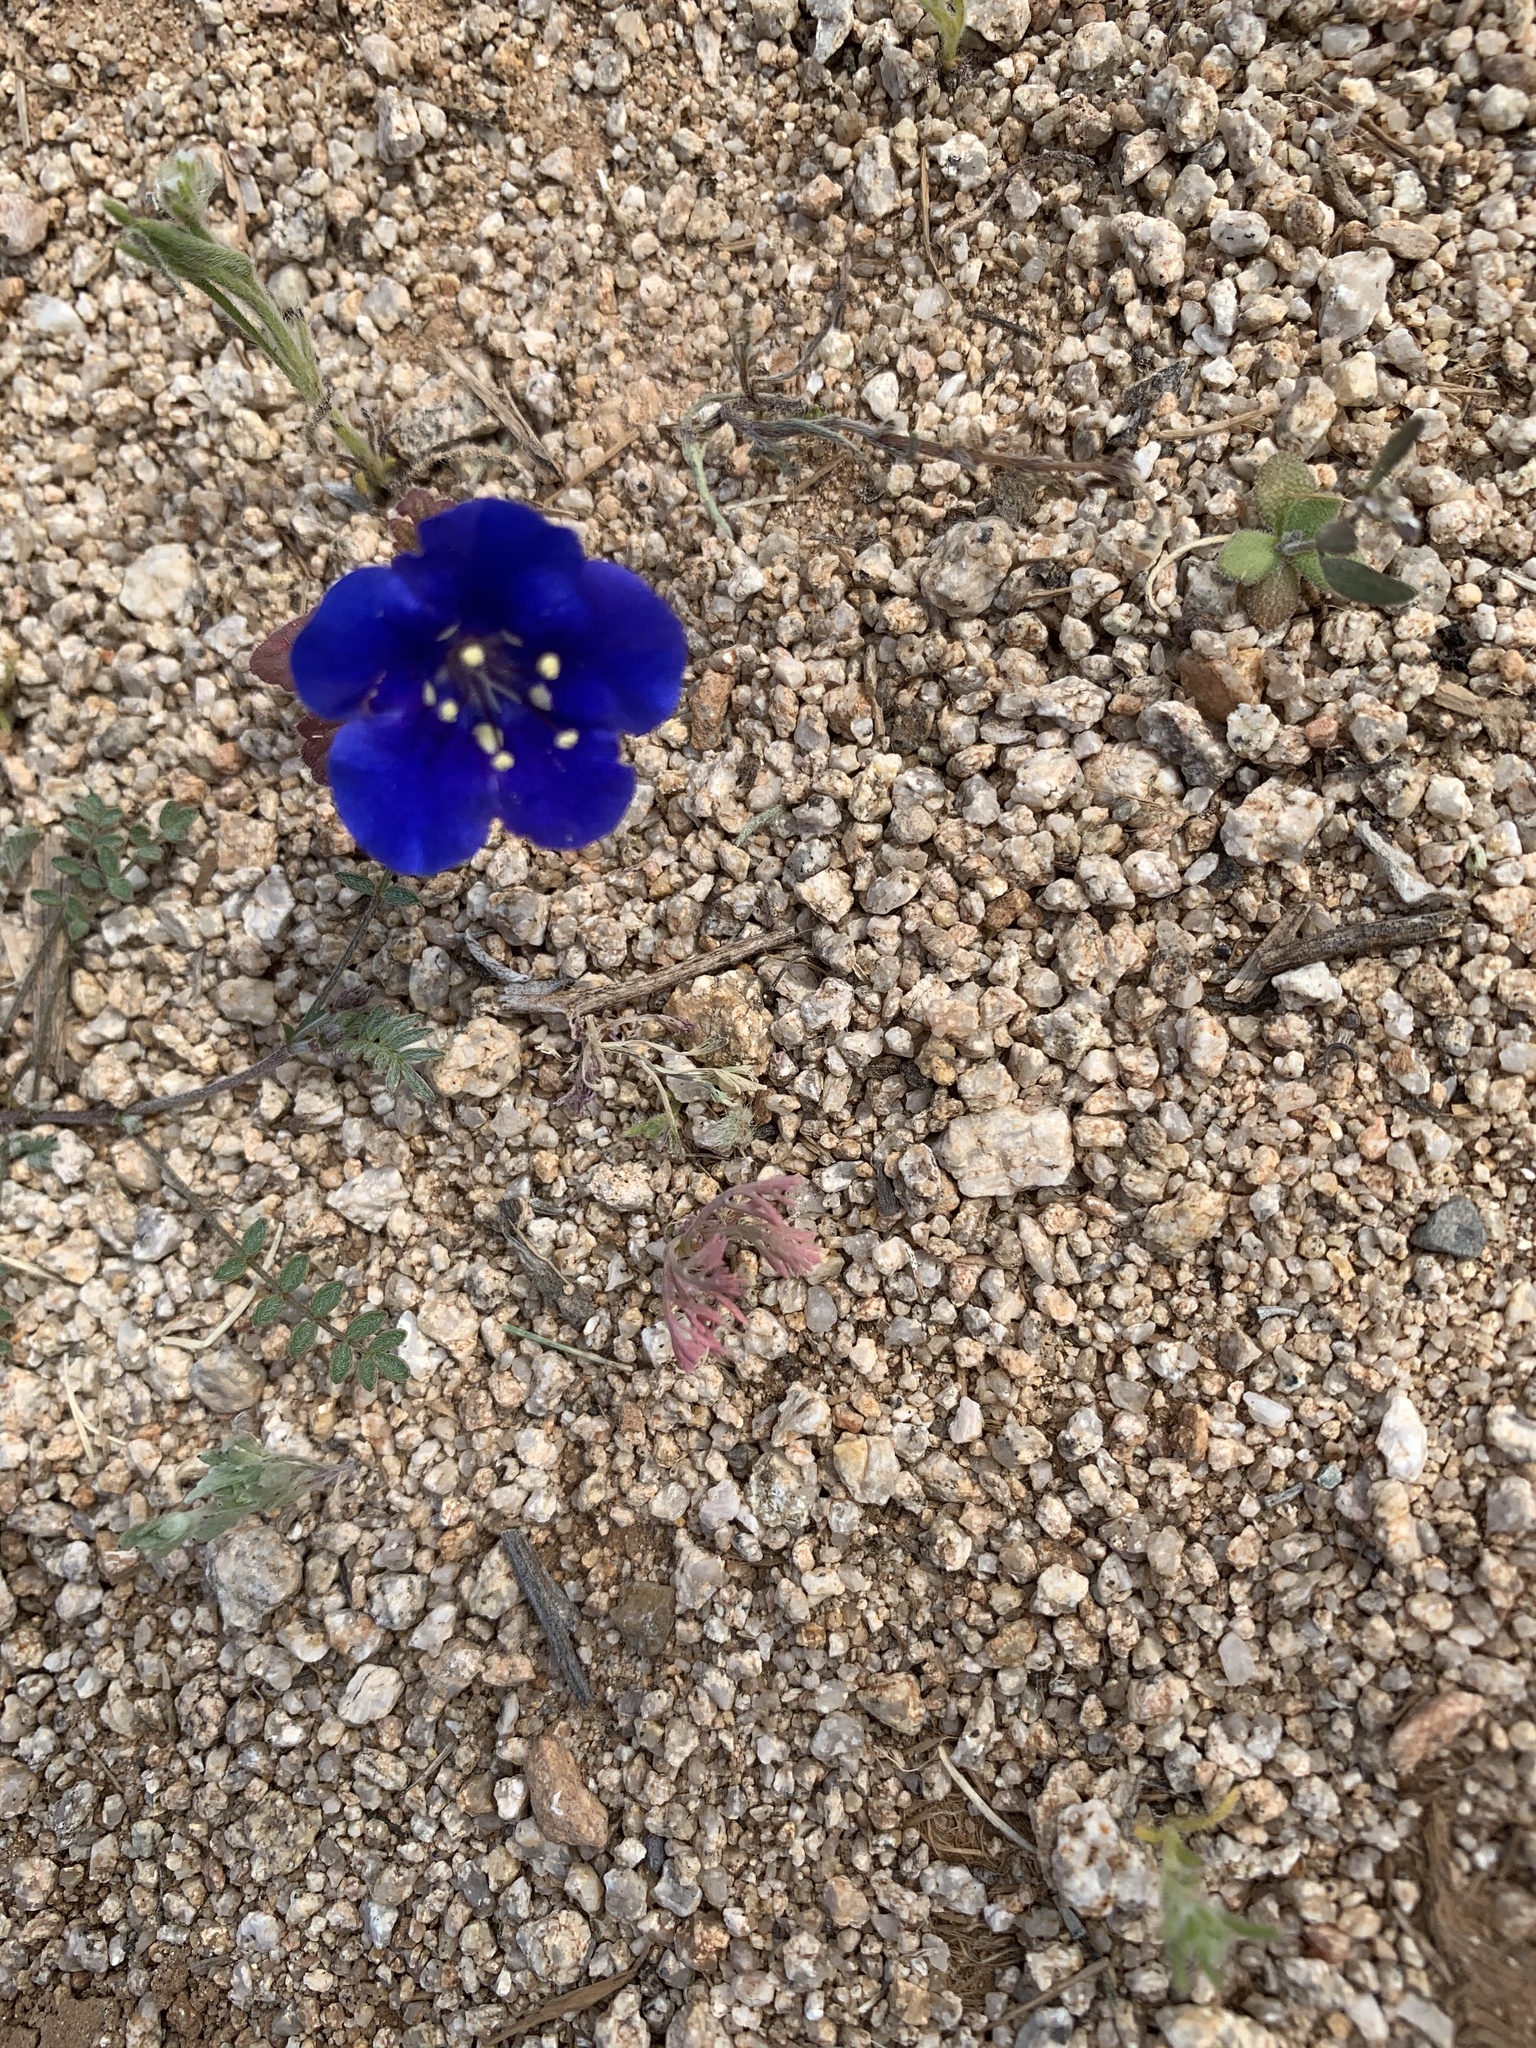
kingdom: Plantae
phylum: Tracheophyta
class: Magnoliopsida
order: Boraginales
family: Hydrophyllaceae
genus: Phacelia
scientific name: Phacelia campanularia
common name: California bluebell
